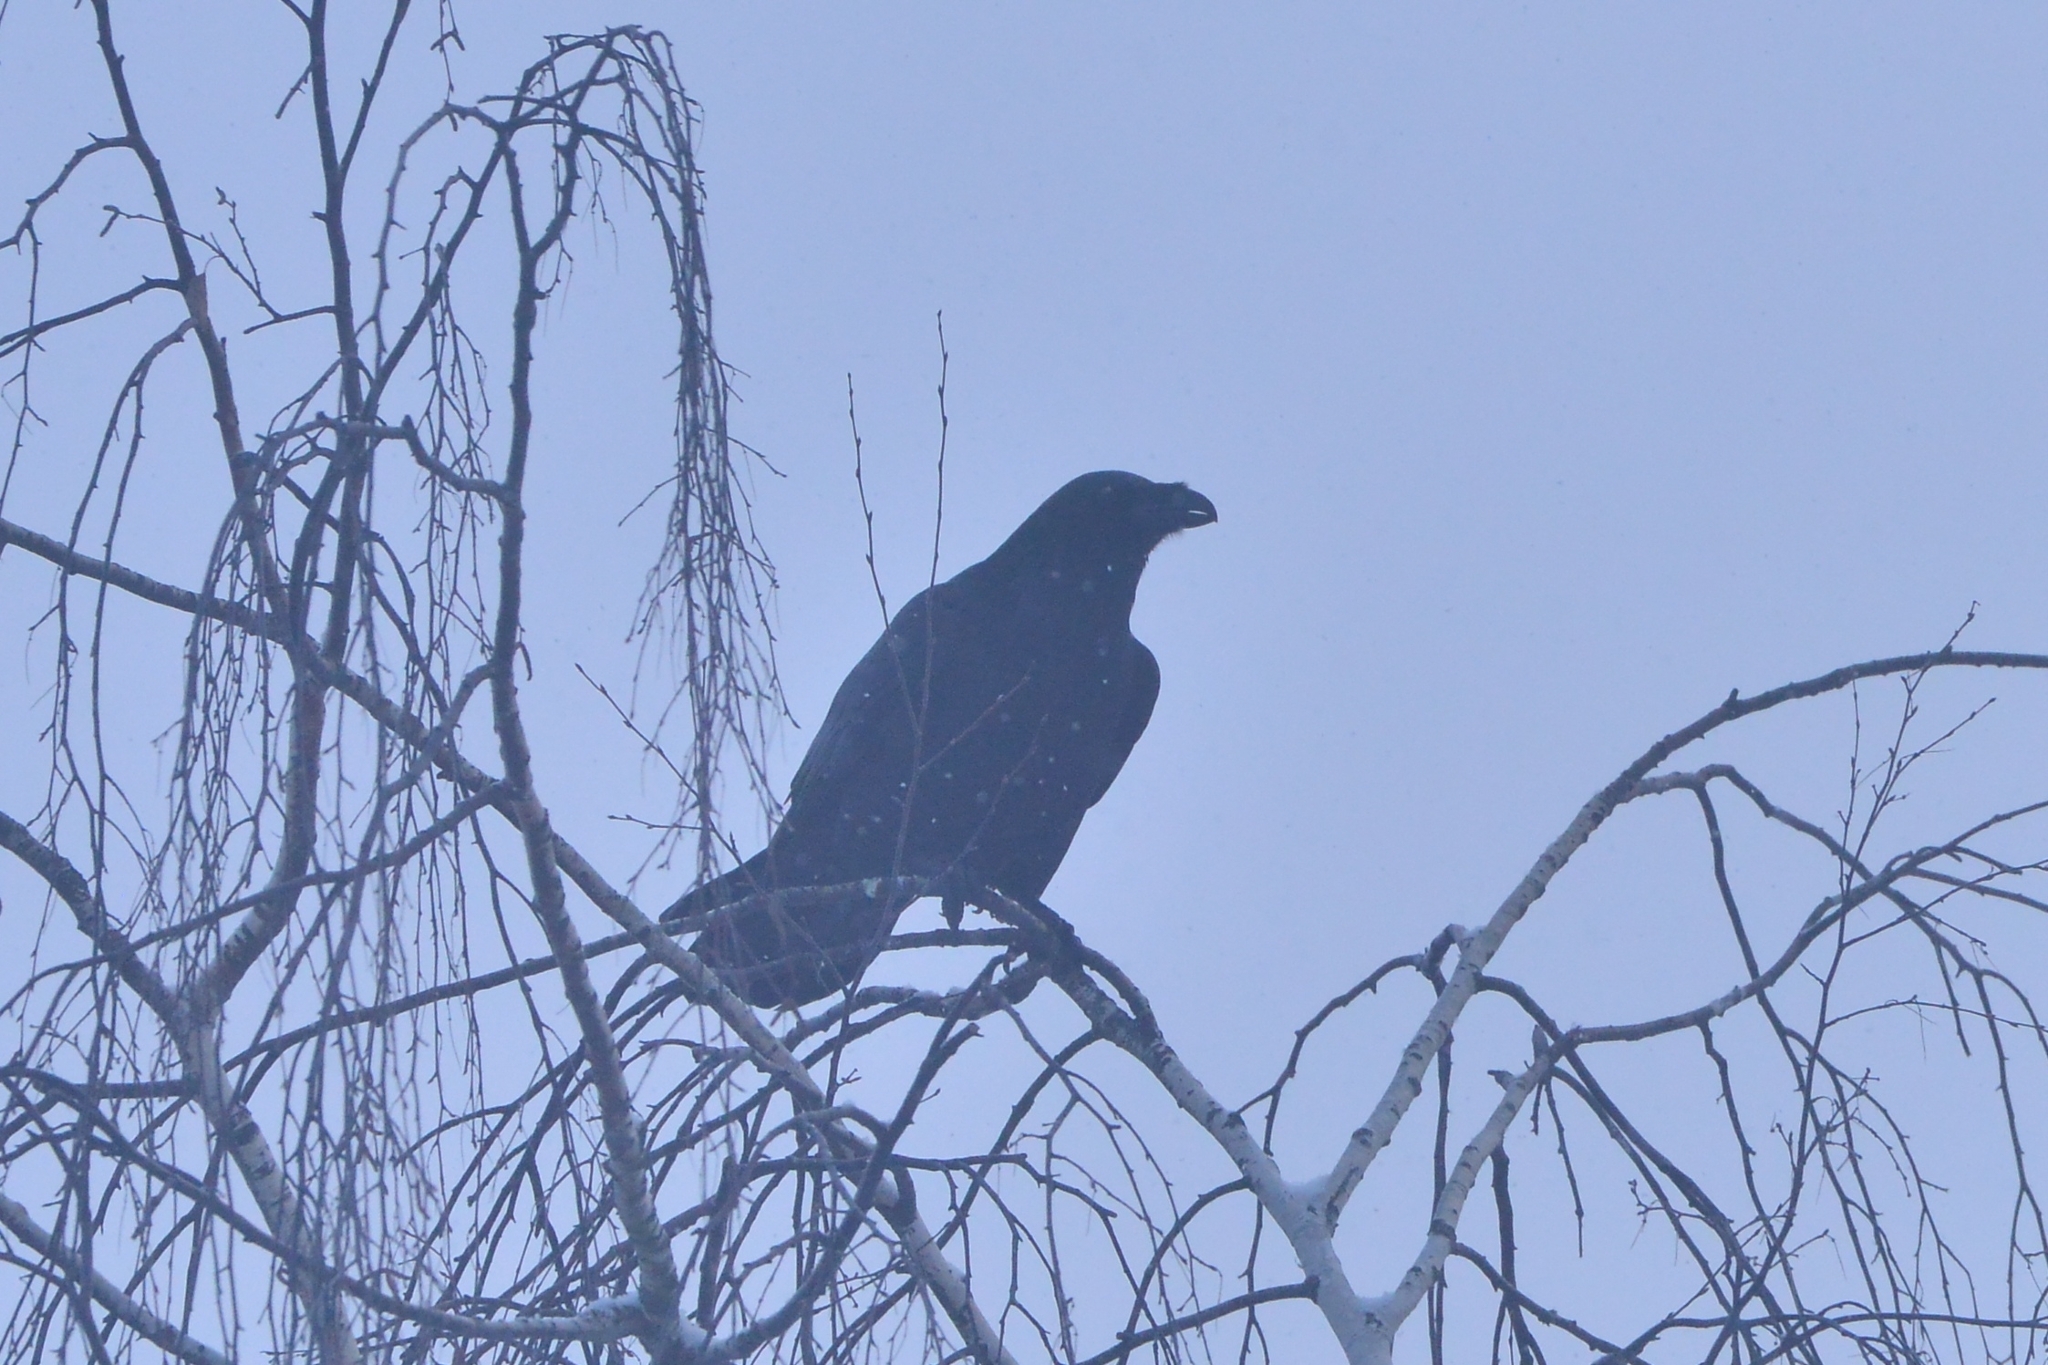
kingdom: Animalia
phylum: Chordata
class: Aves
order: Passeriformes
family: Corvidae
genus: Corvus
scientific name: Corvus corax
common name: Common raven
